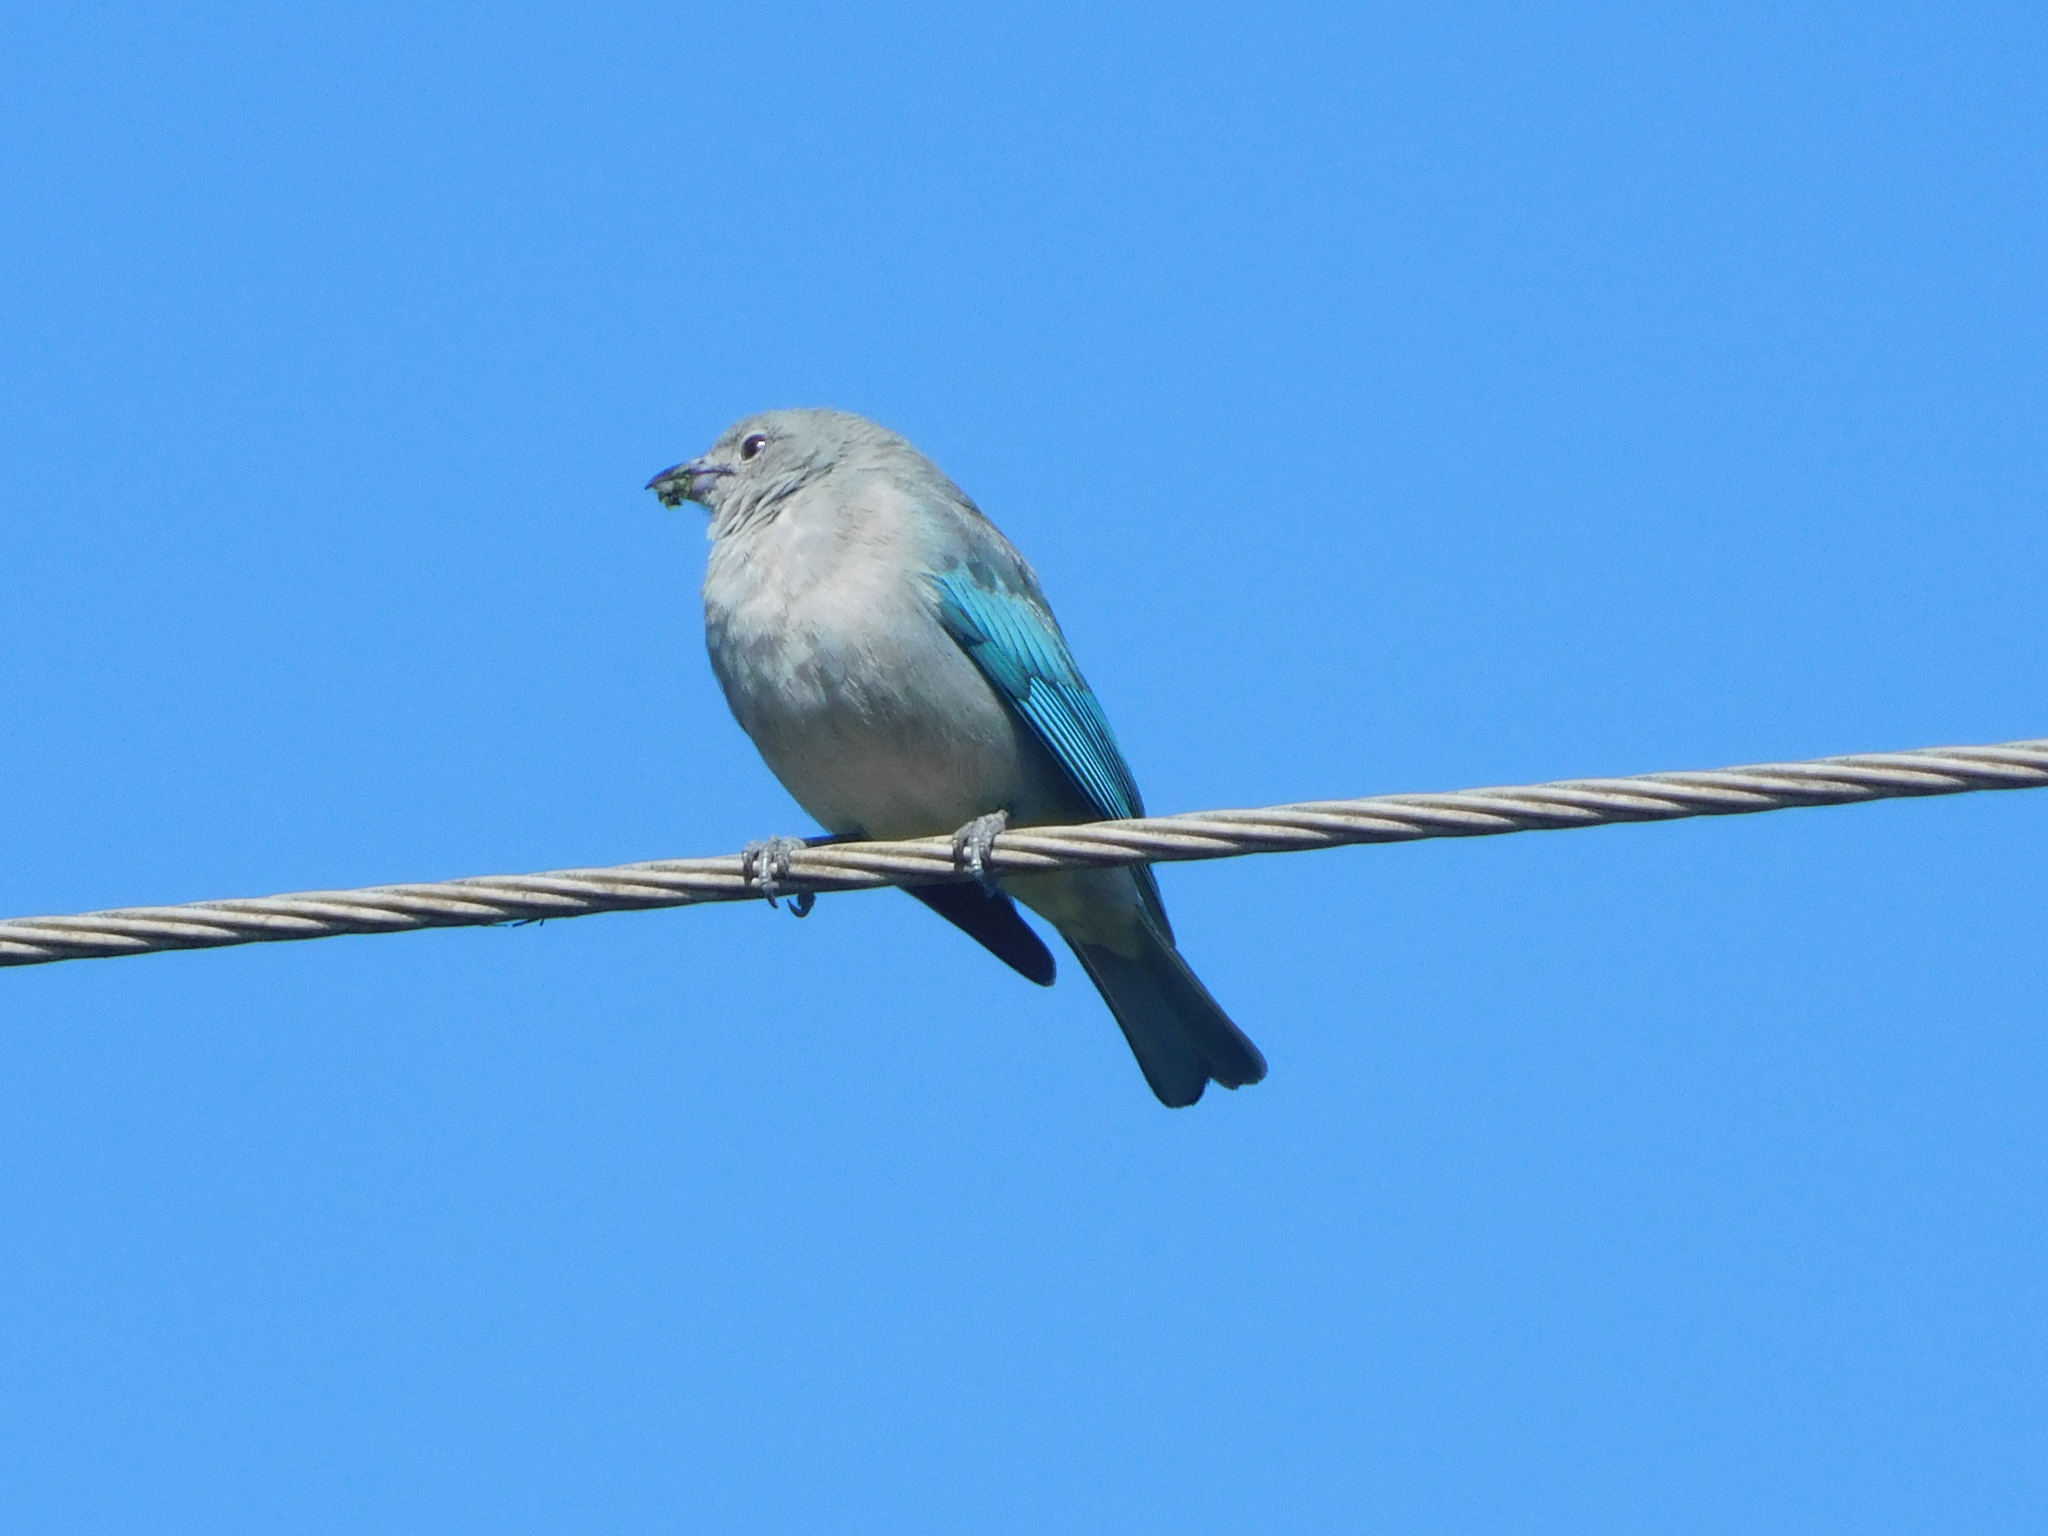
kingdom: Animalia
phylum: Chordata
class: Aves
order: Passeriformes
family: Thraupidae
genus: Thraupis
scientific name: Thraupis sayaca
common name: Sayaca tanager
